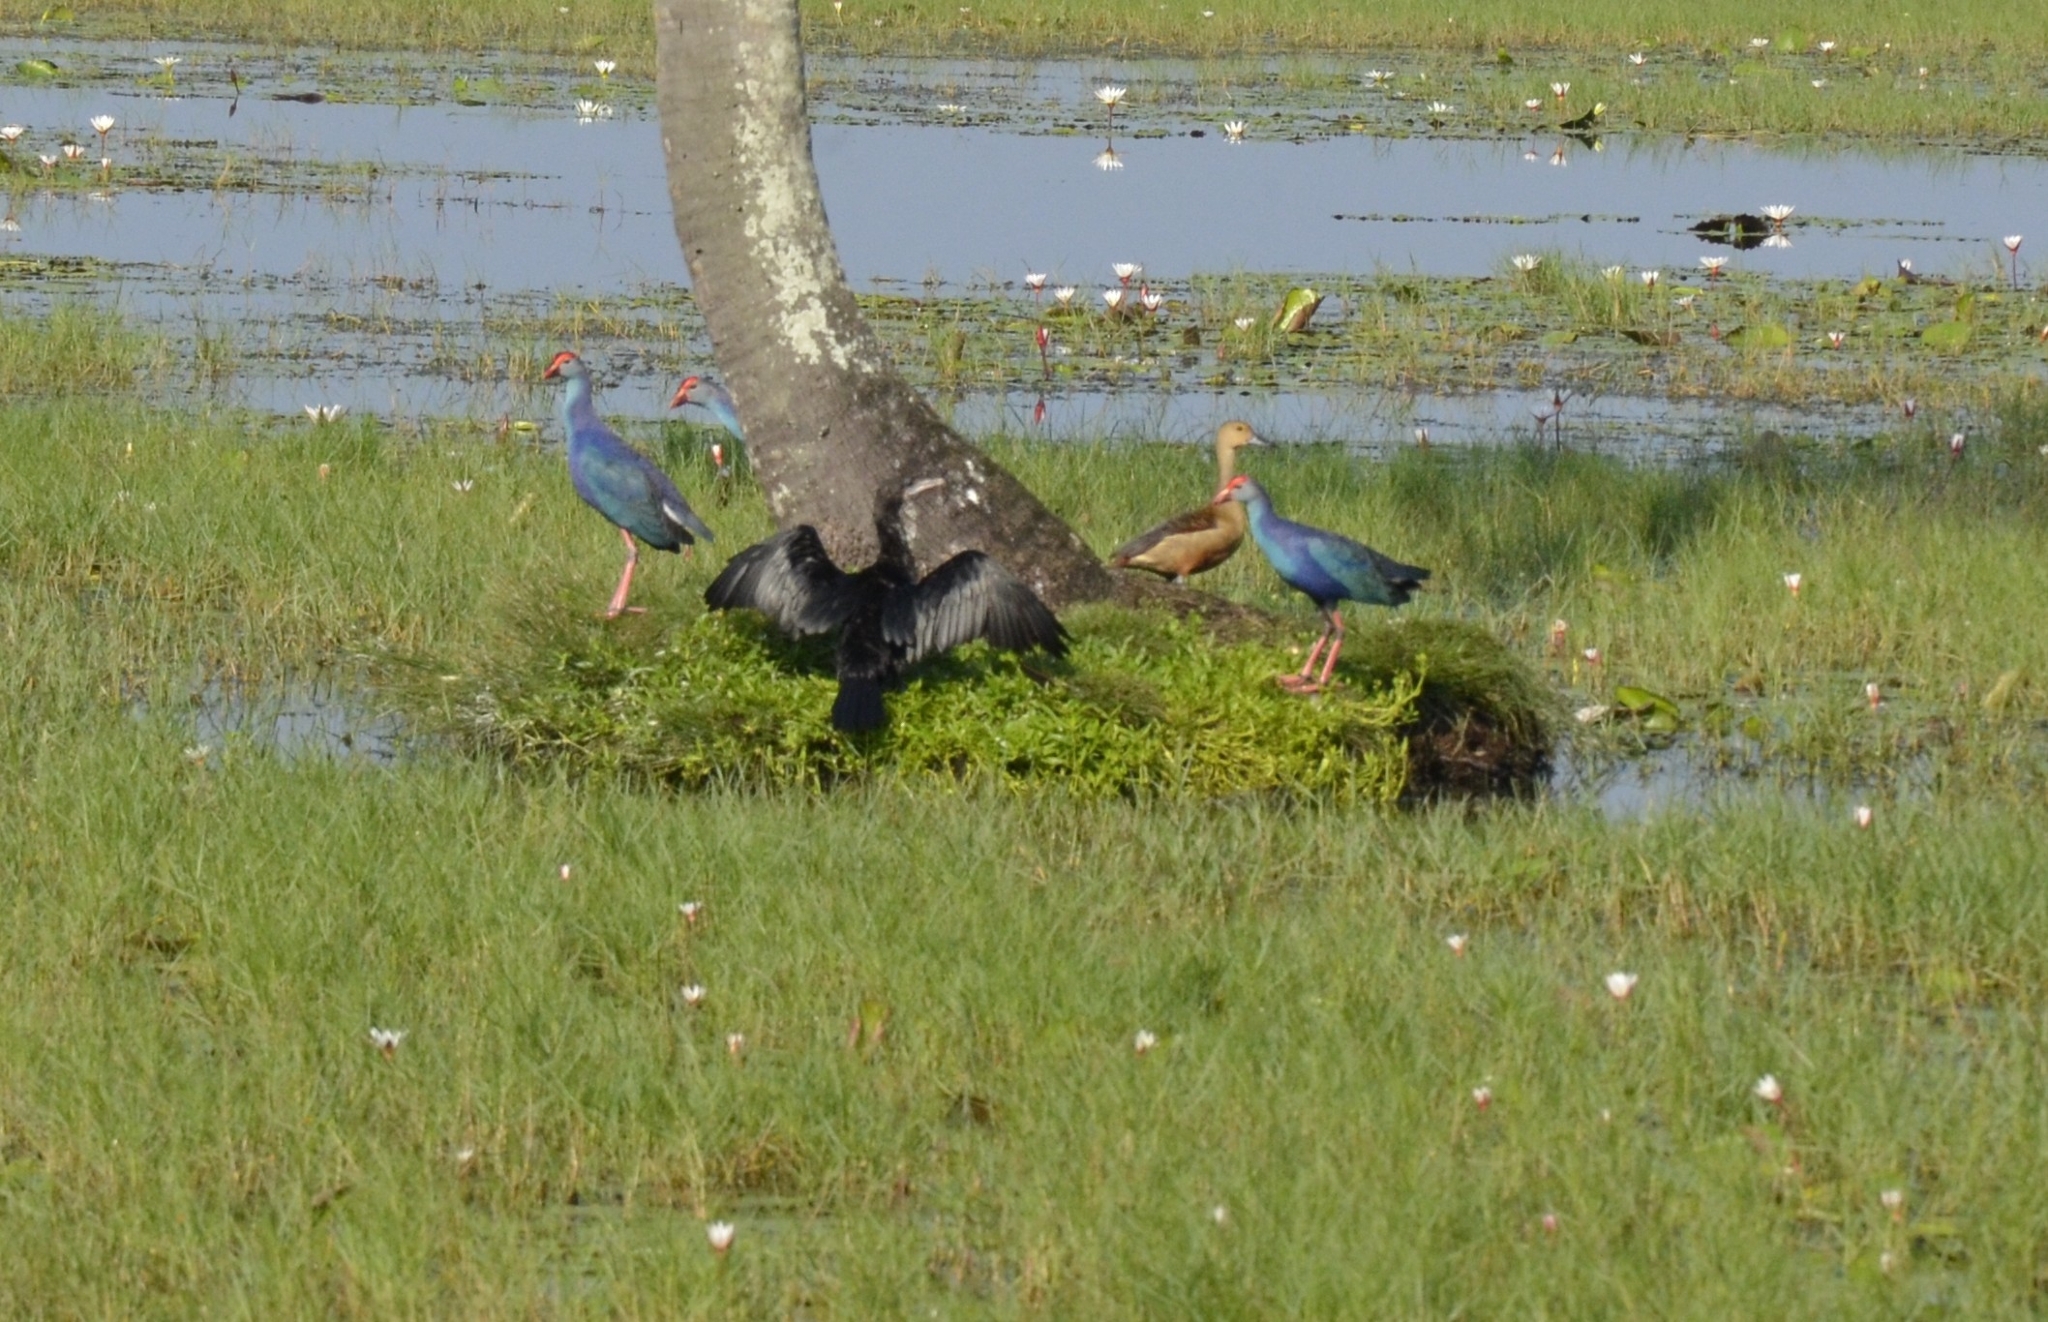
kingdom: Animalia
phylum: Chordata
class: Aves
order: Gruiformes
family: Rallidae
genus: Porphyrio
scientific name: Porphyrio porphyrio
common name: Purple swamphen
